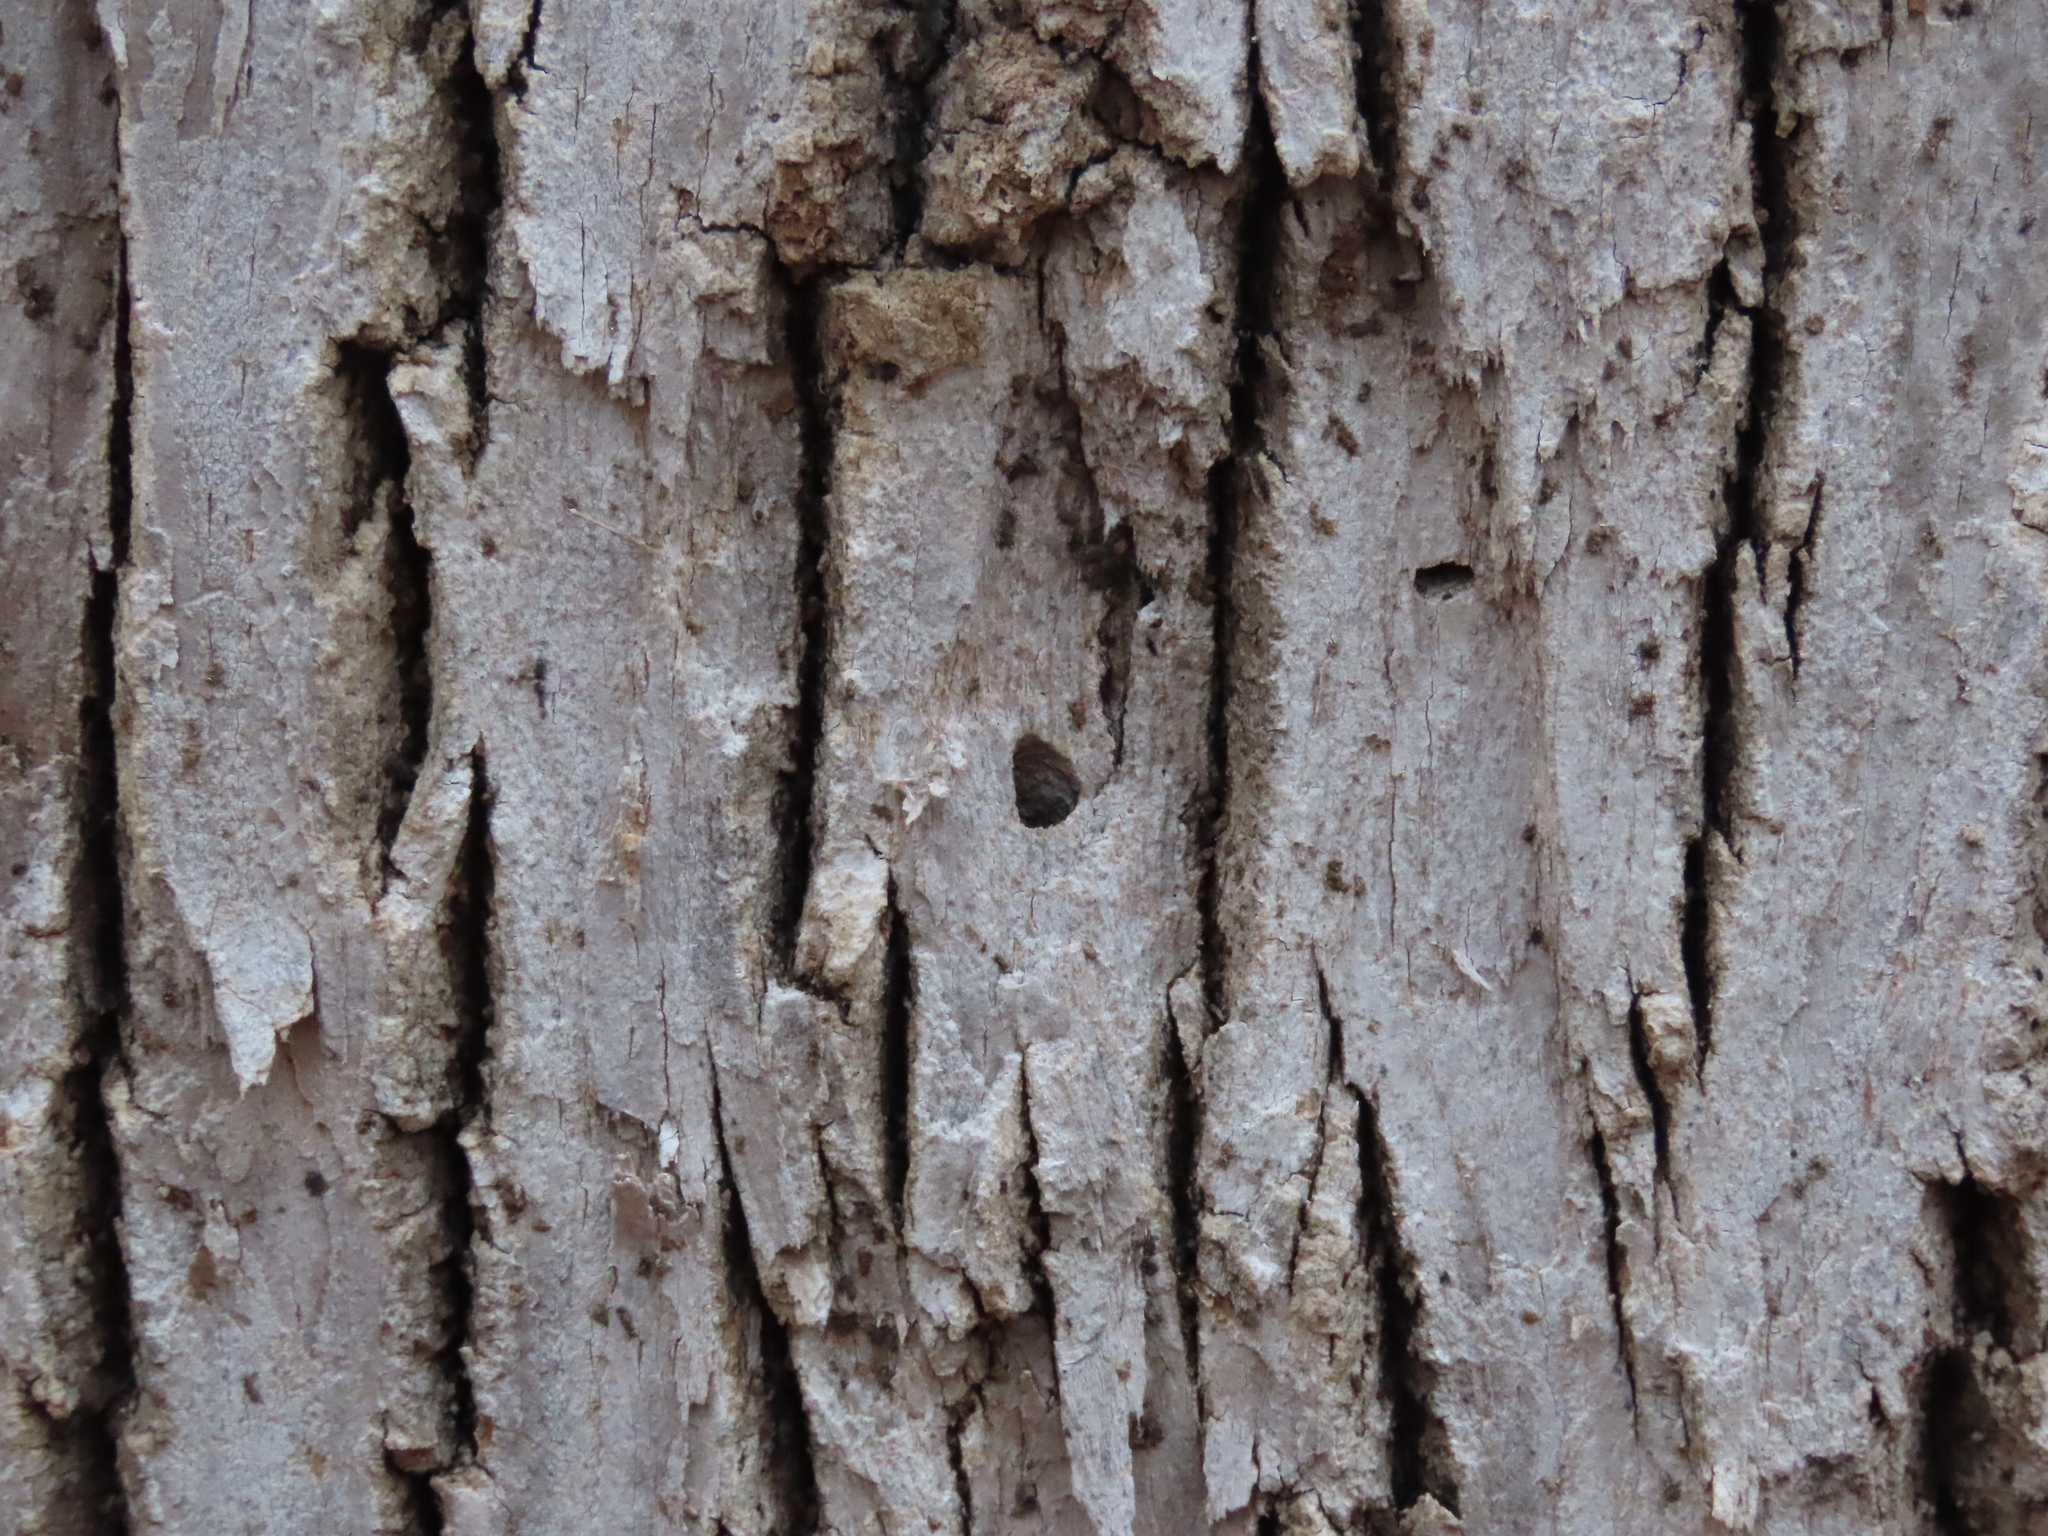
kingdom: Animalia
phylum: Arthropoda
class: Insecta
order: Coleoptera
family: Buprestidae
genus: Agrilus
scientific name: Agrilus planipennis
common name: Emerald ash borer
